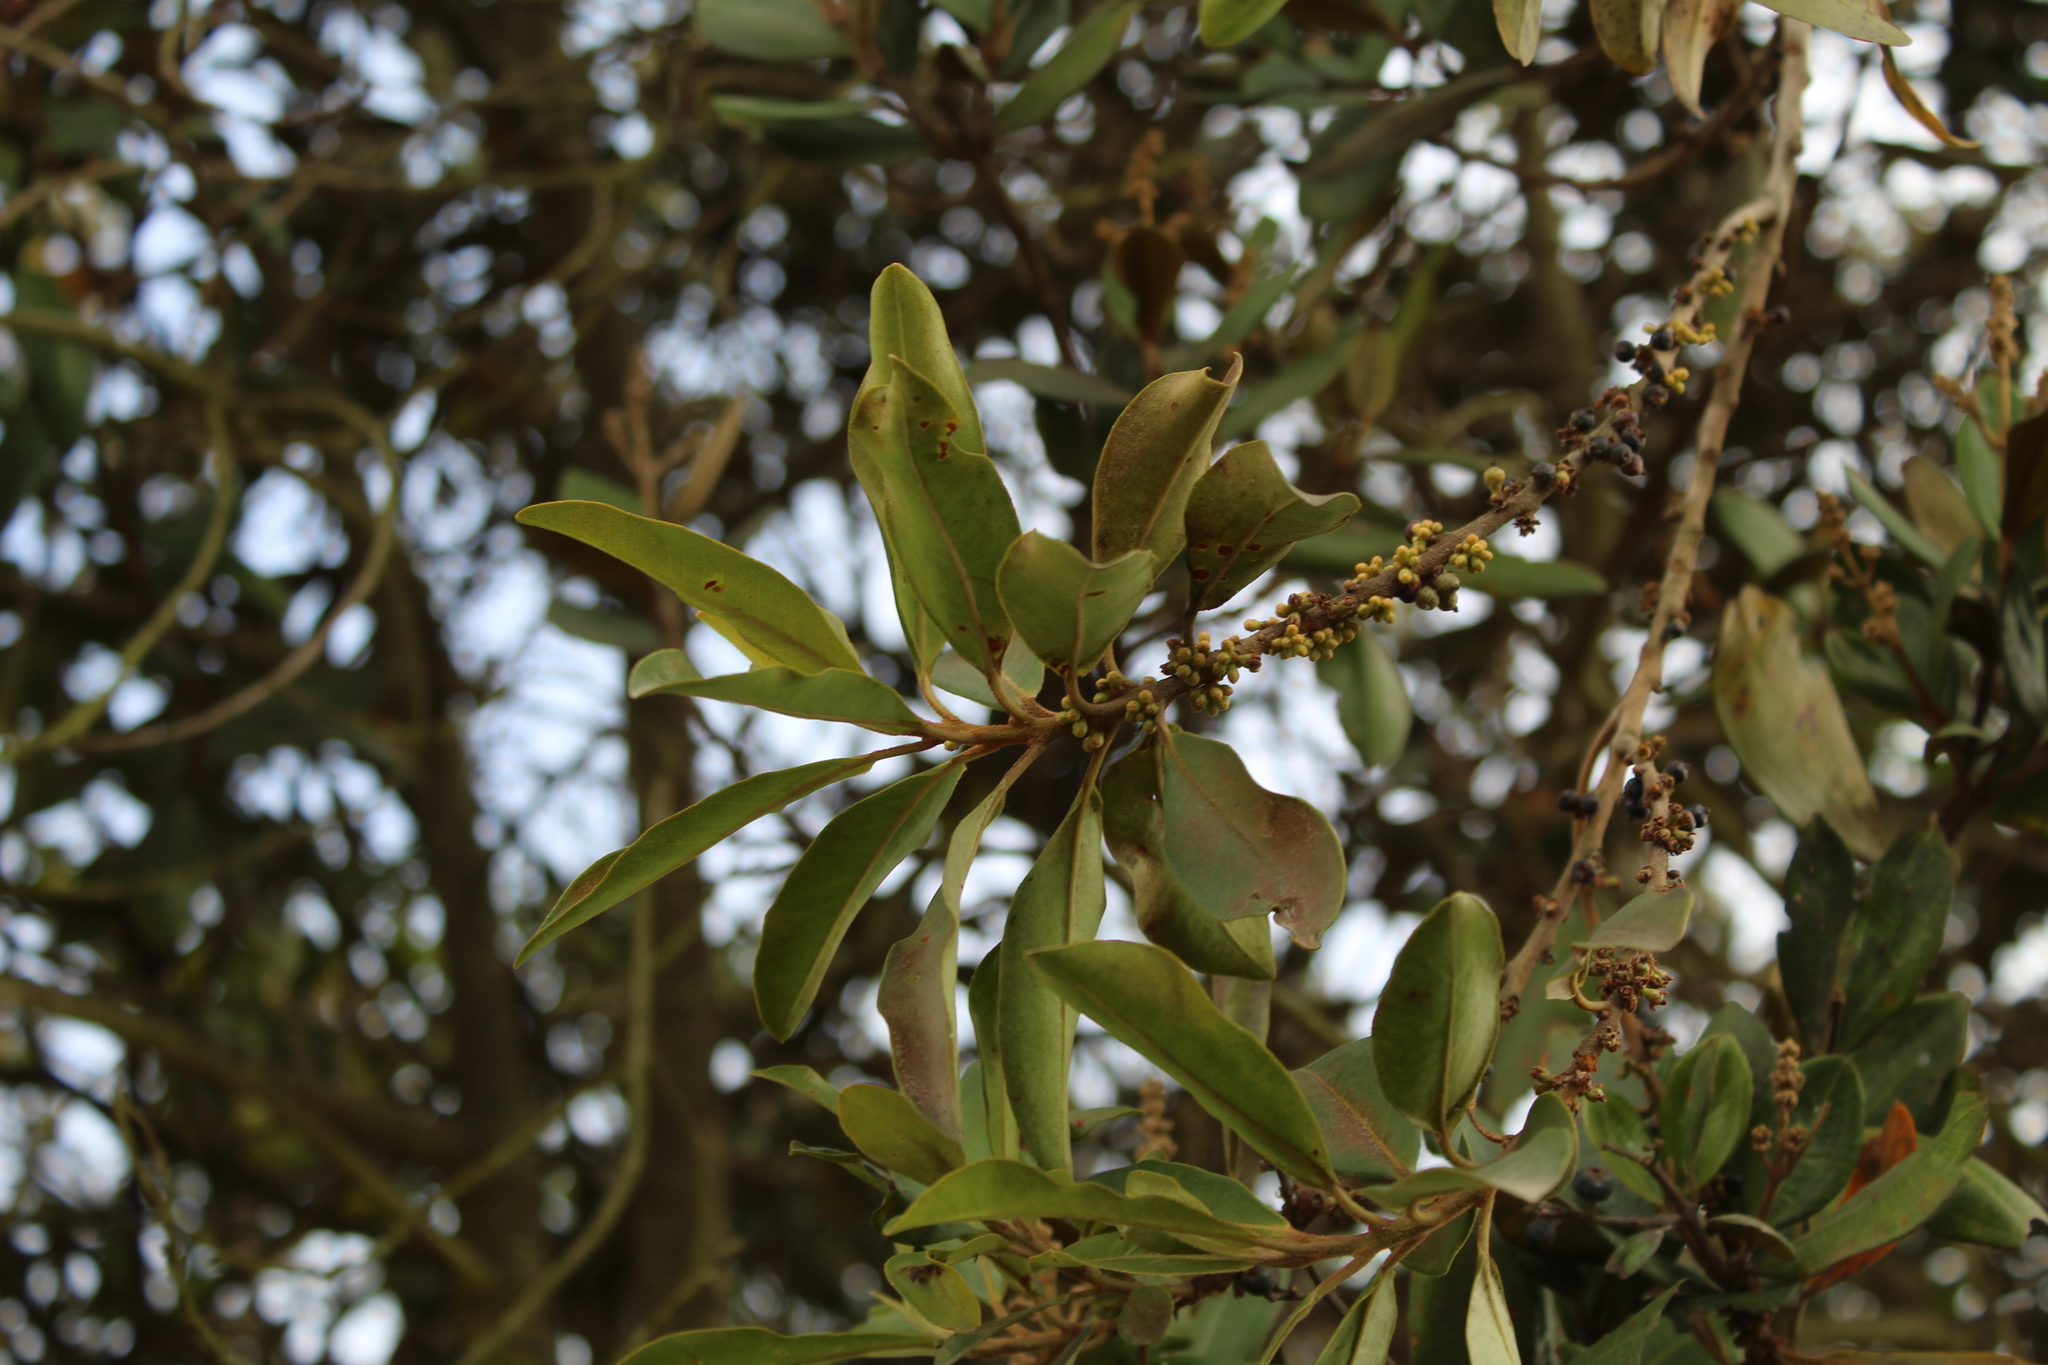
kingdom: Plantae
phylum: Tracheophyta
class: Magnoliopsida
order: Ericales
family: Primulaceae
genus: Myrsine
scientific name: Myrsine coriacea
